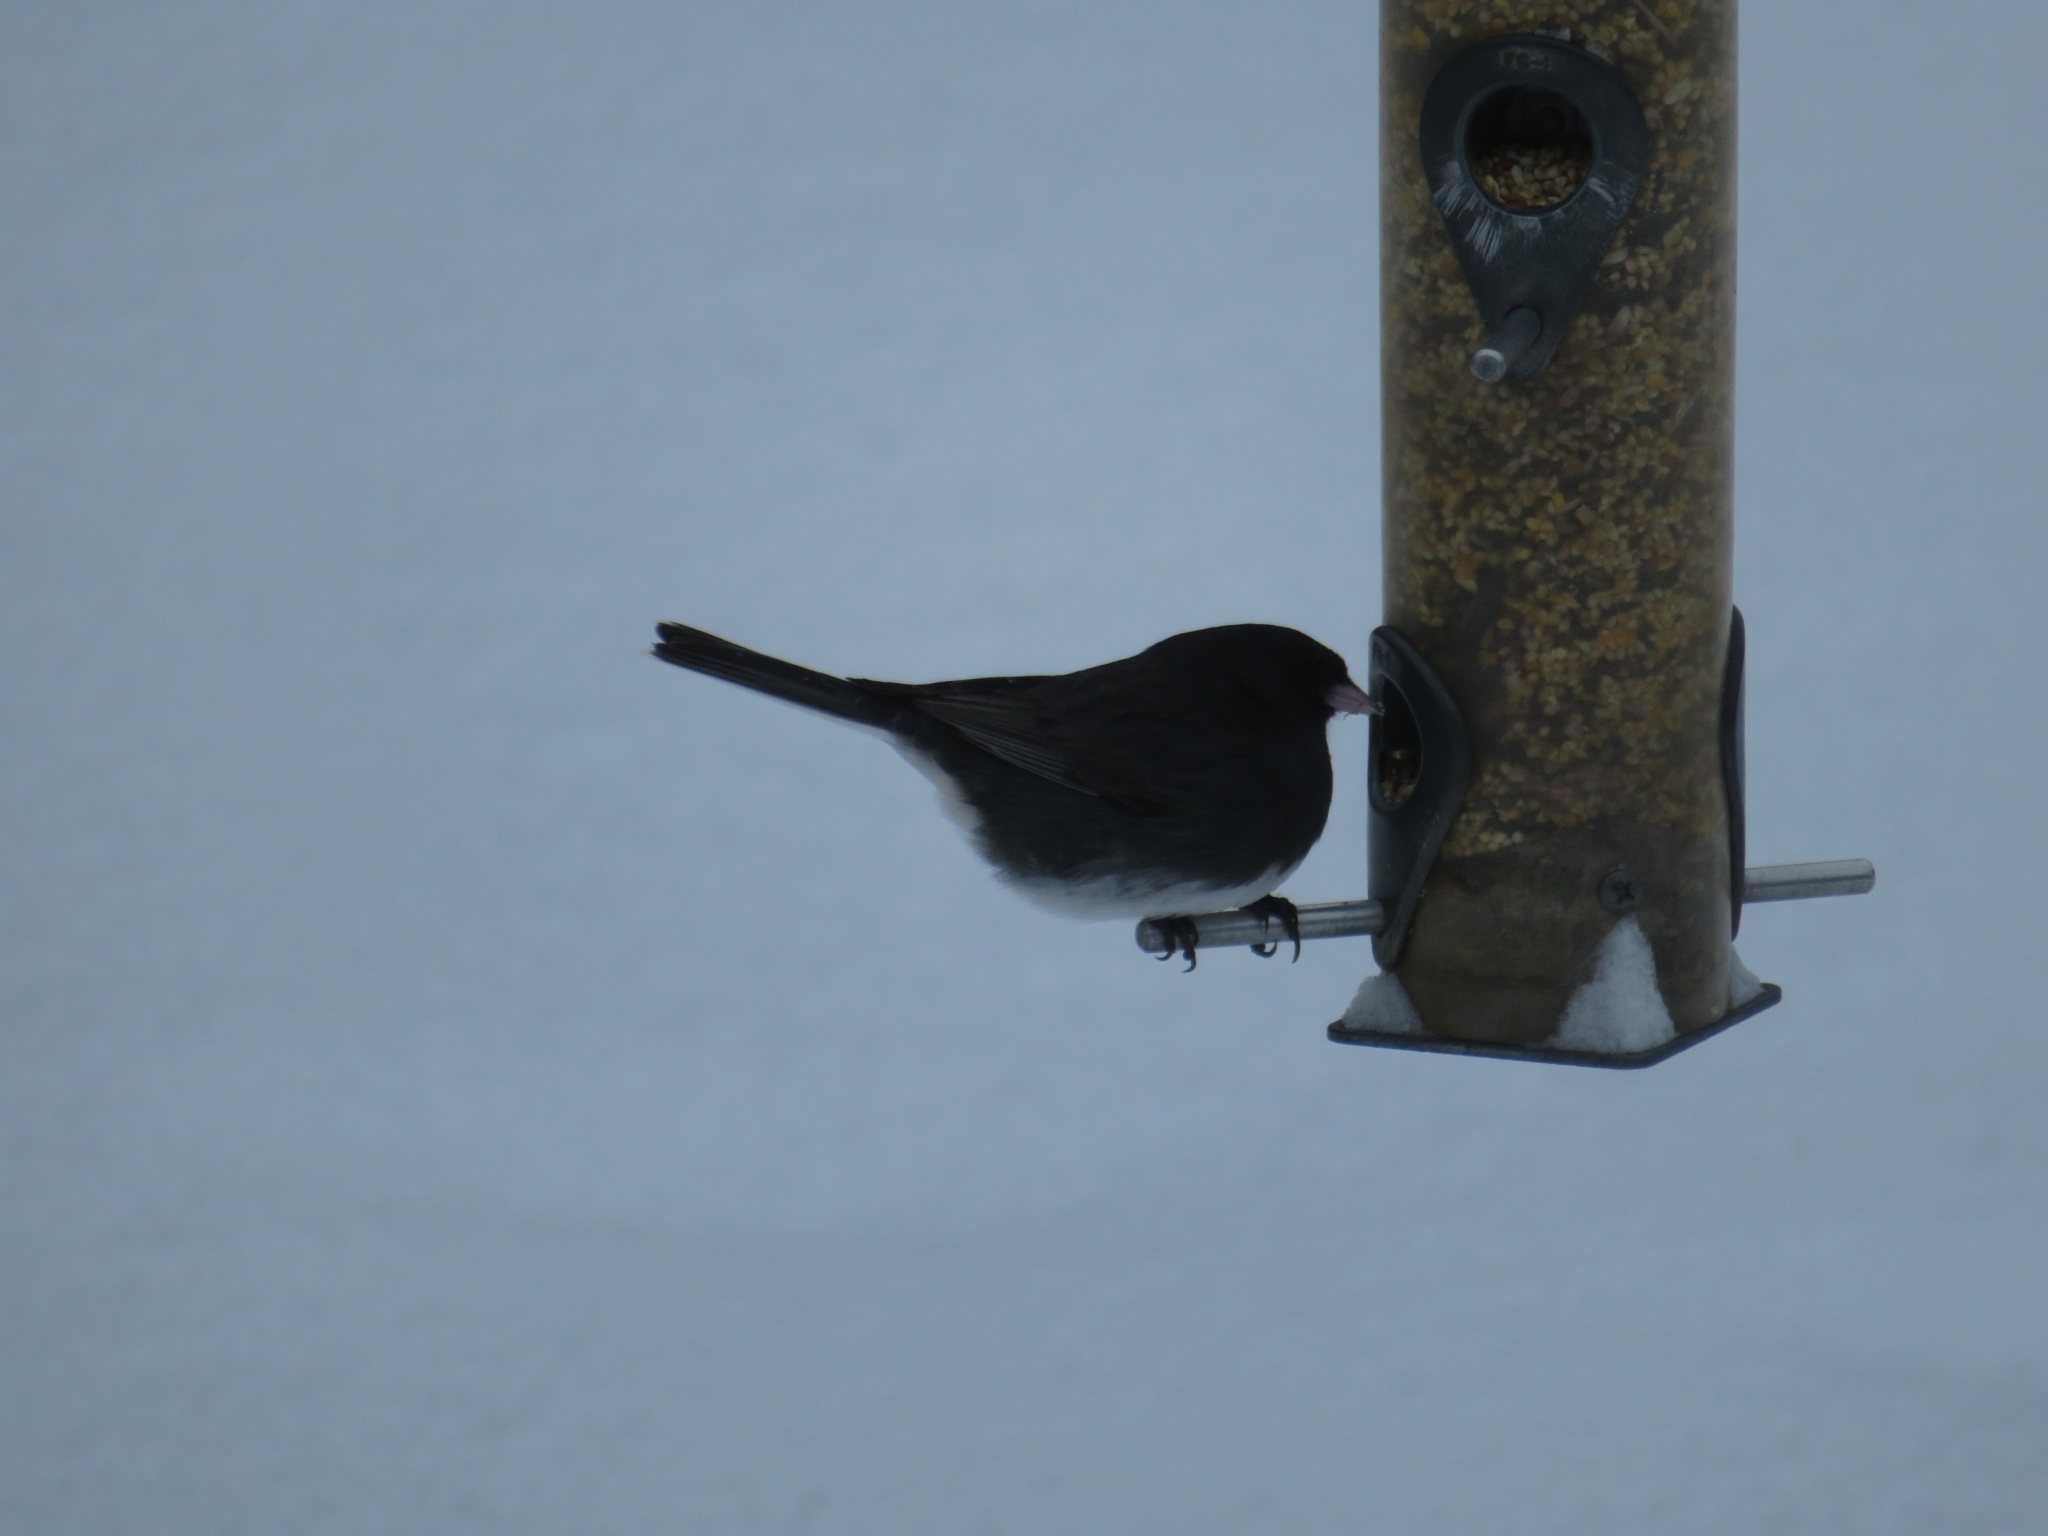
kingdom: Animalia
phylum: Chordata
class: Aves
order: Passeriformes
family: Passerellidae
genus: Junco
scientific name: Junco hyemalis
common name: Dark-eyed junco
